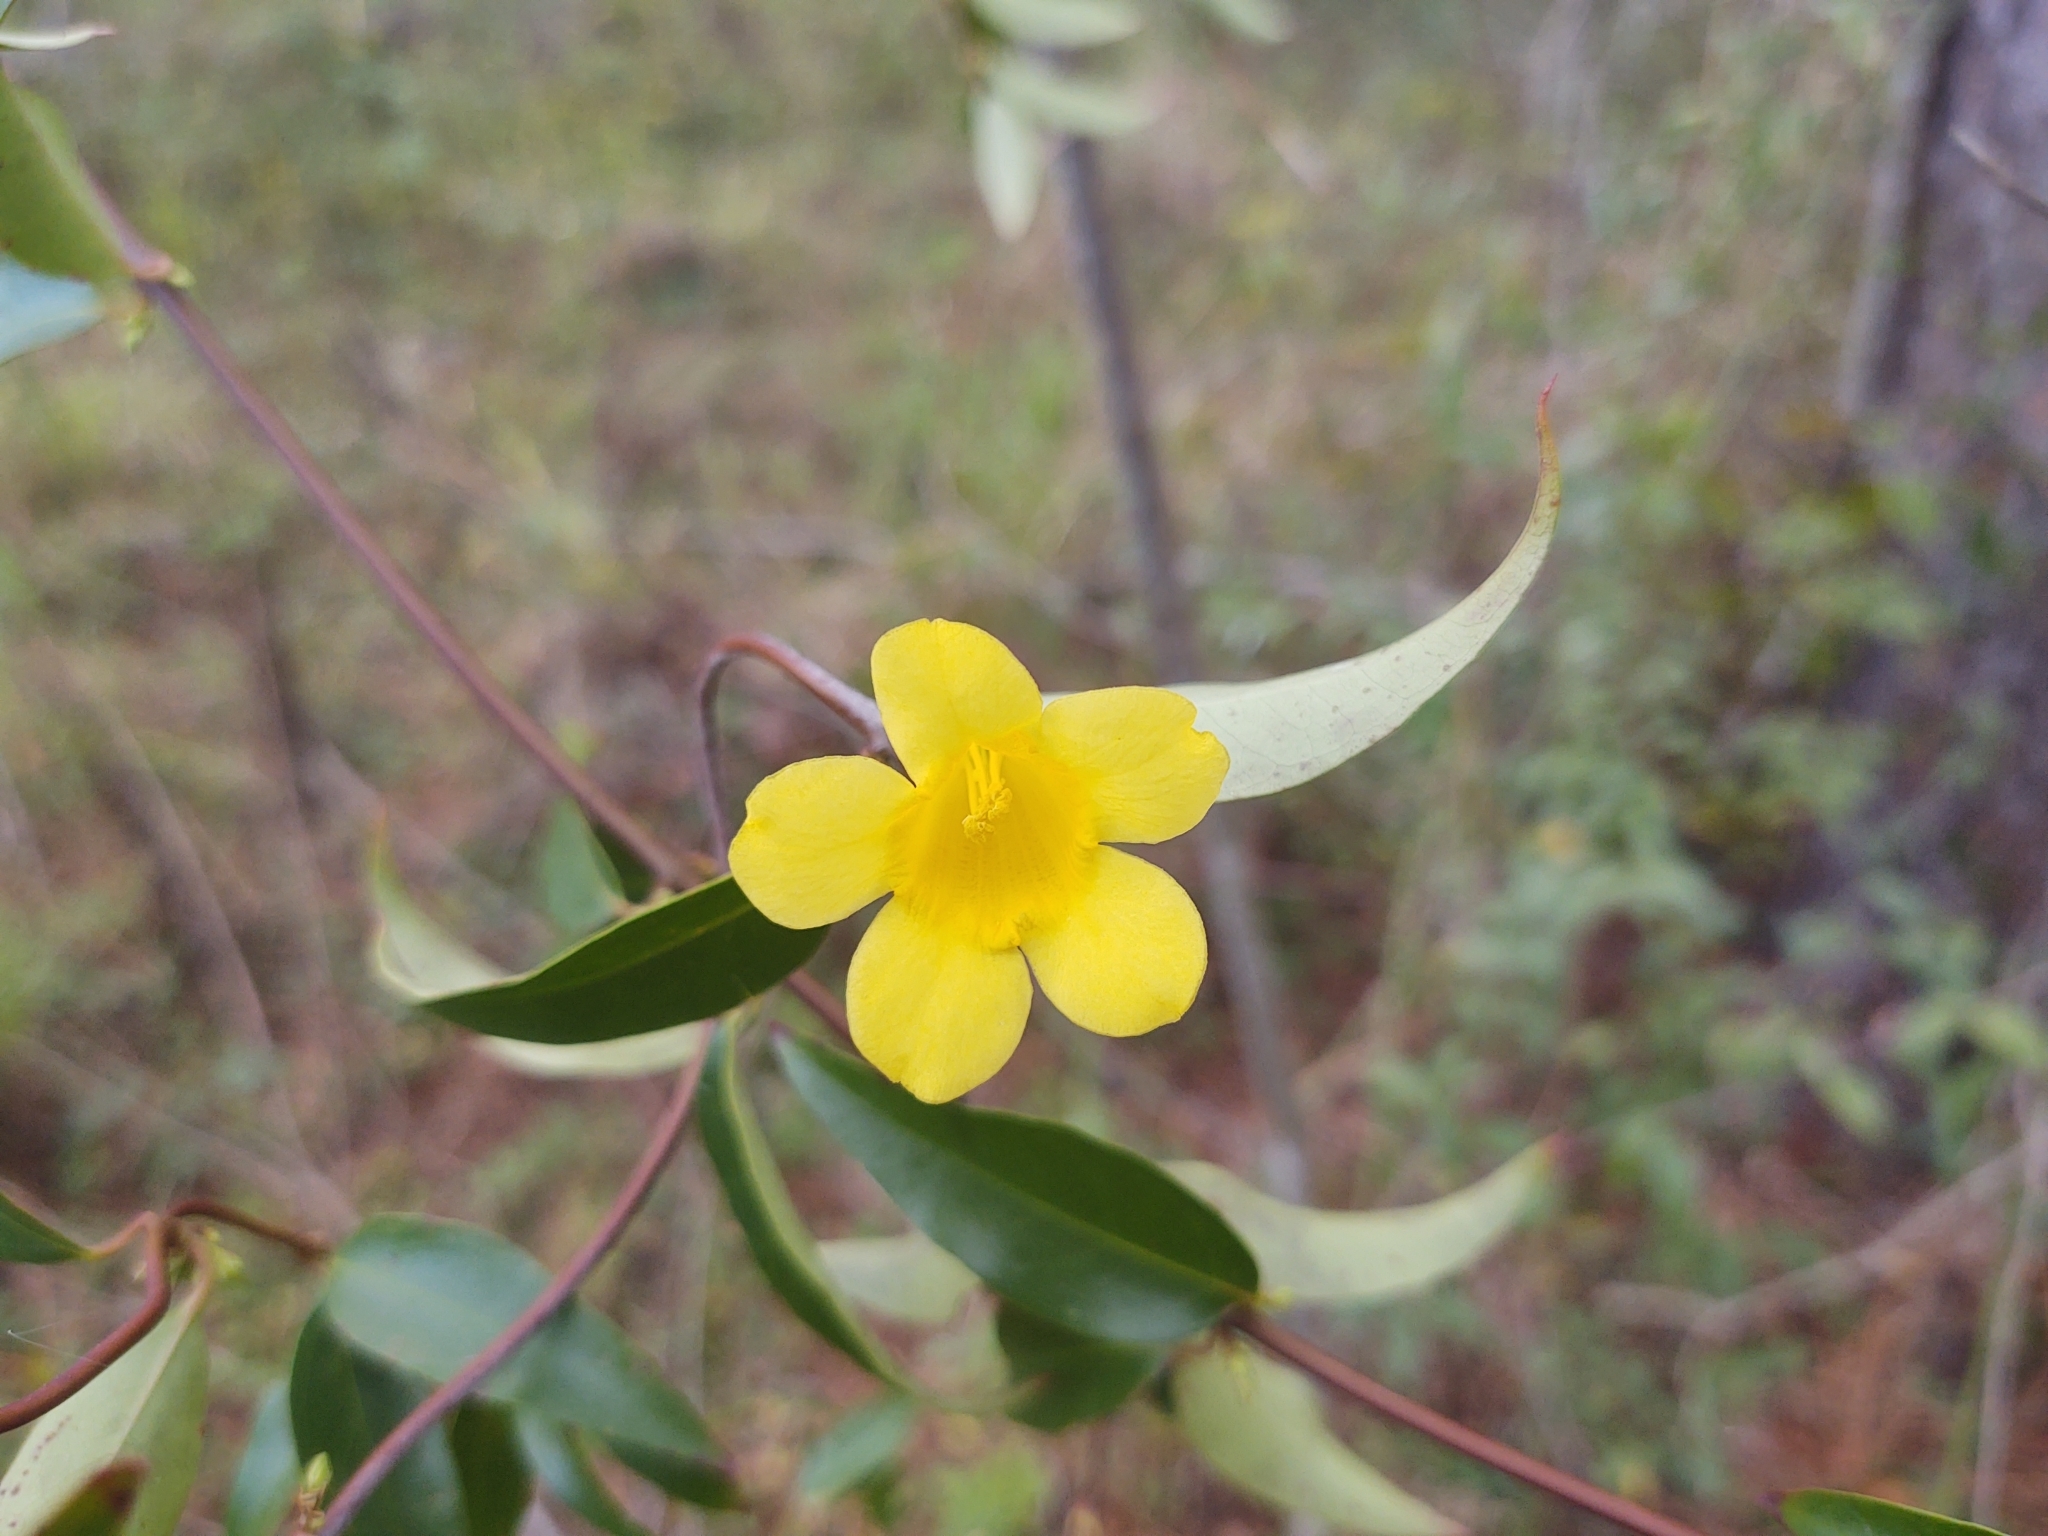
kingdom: Plantae
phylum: Tracheophyta
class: Magnoliopsida
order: Gentianales
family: Gelsemiaceae
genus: Gelsemium
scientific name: Gelsemium sempervirens
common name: Carolina-jasmine
